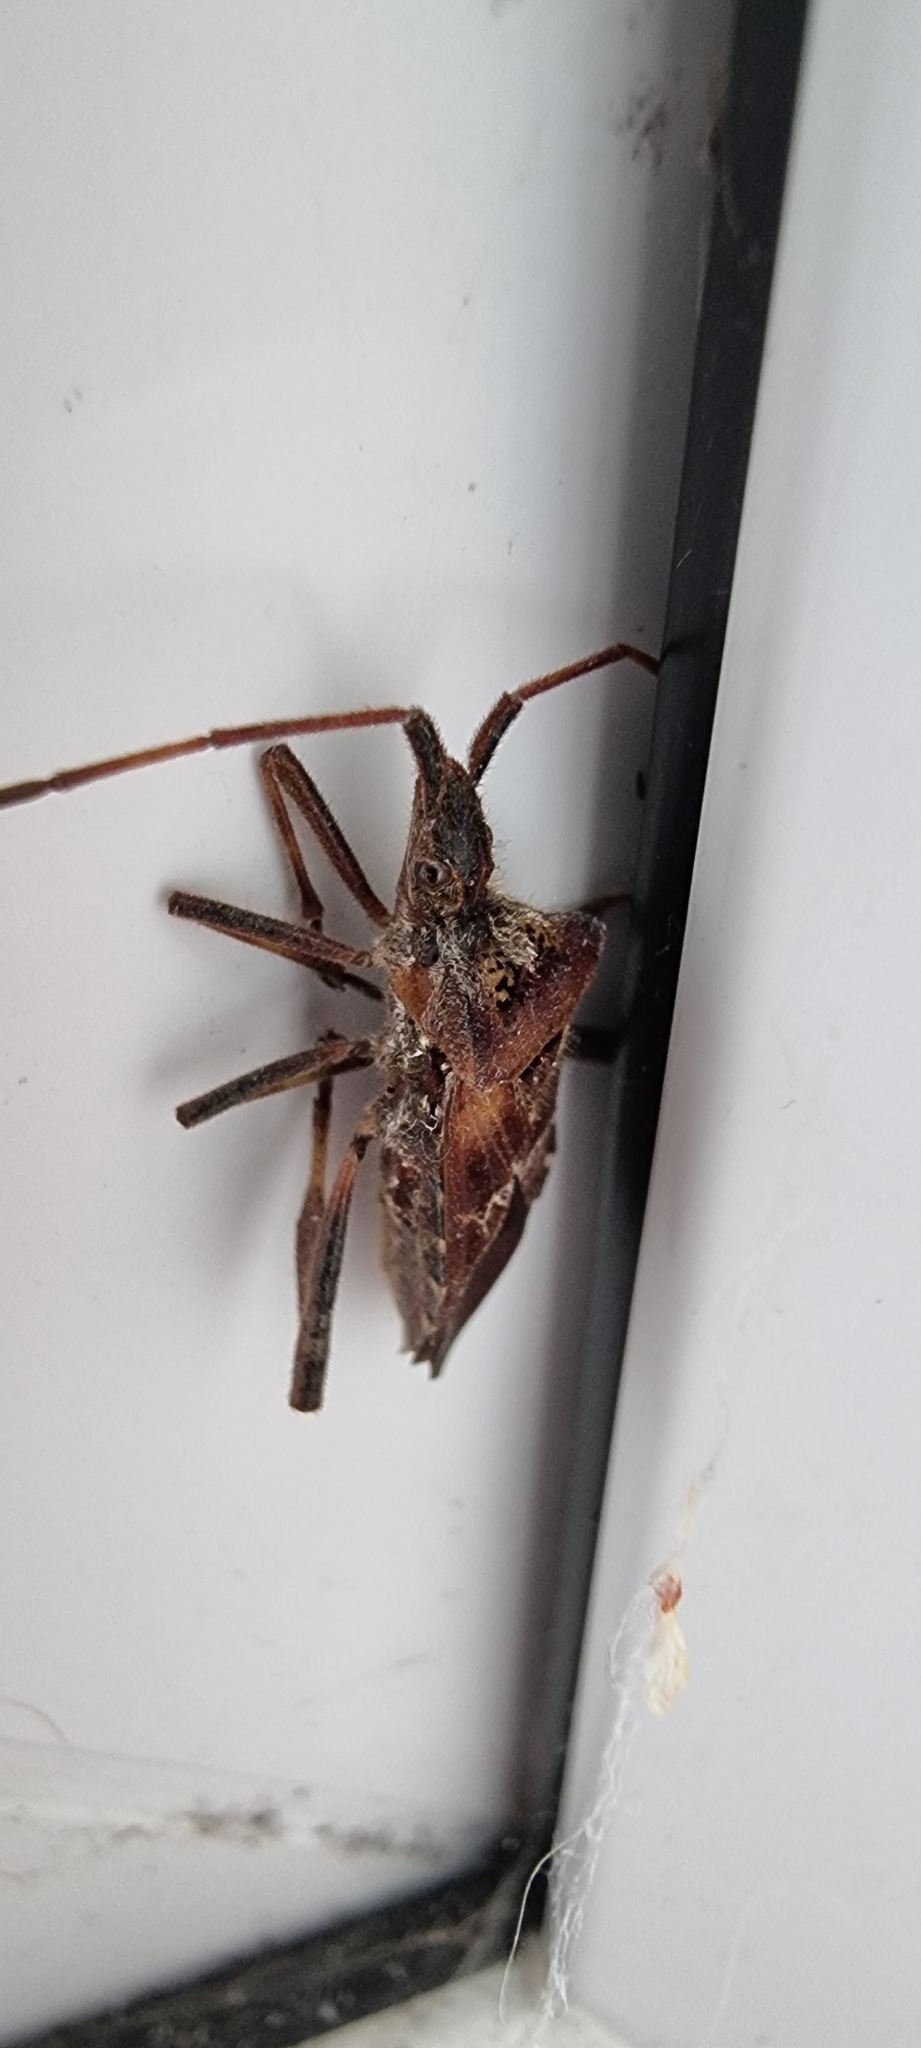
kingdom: Animalia
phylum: Arthropoda
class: Insecta
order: Hemiptera
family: Coreidae
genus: Leptoglossus
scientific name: Leptoglossus occidentalis
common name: Western conifer-seed bug
